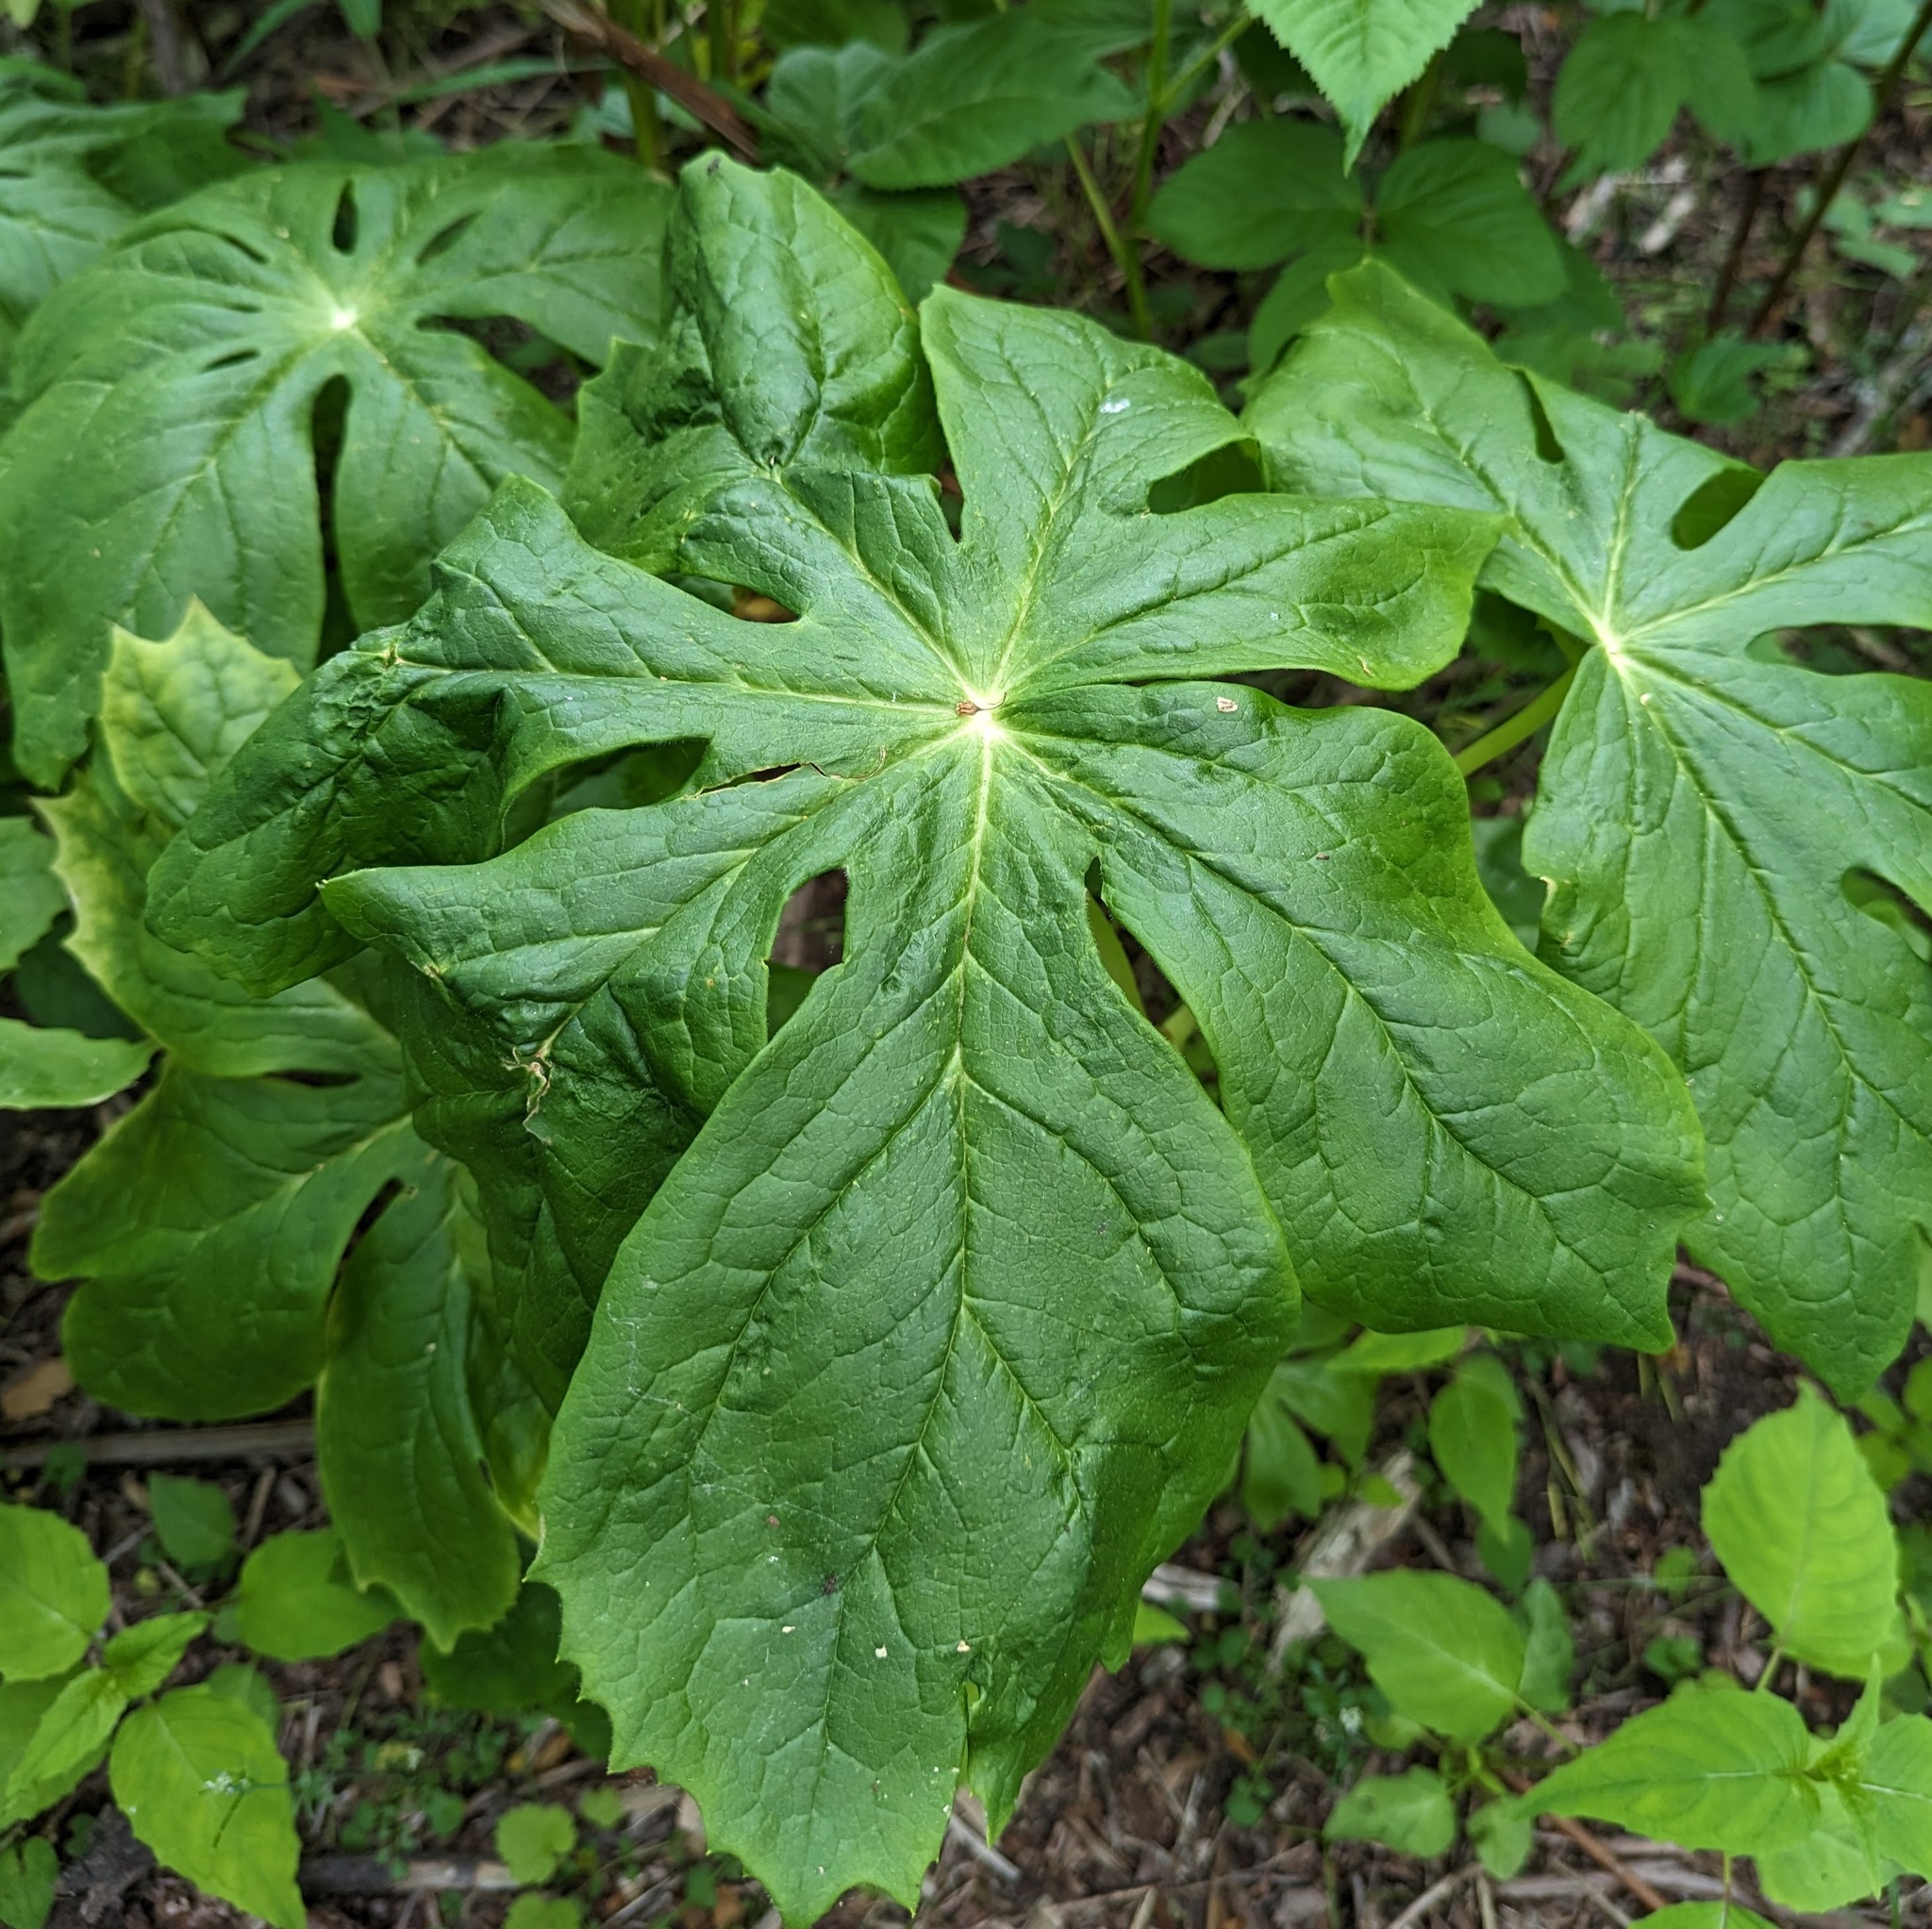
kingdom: Plantae
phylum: Tracheophyta
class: Magnoliopsida
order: Ranunculales
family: Berberidaceae
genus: Podophyllum
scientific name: Podophyllum peltatum
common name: Wild mandrake
